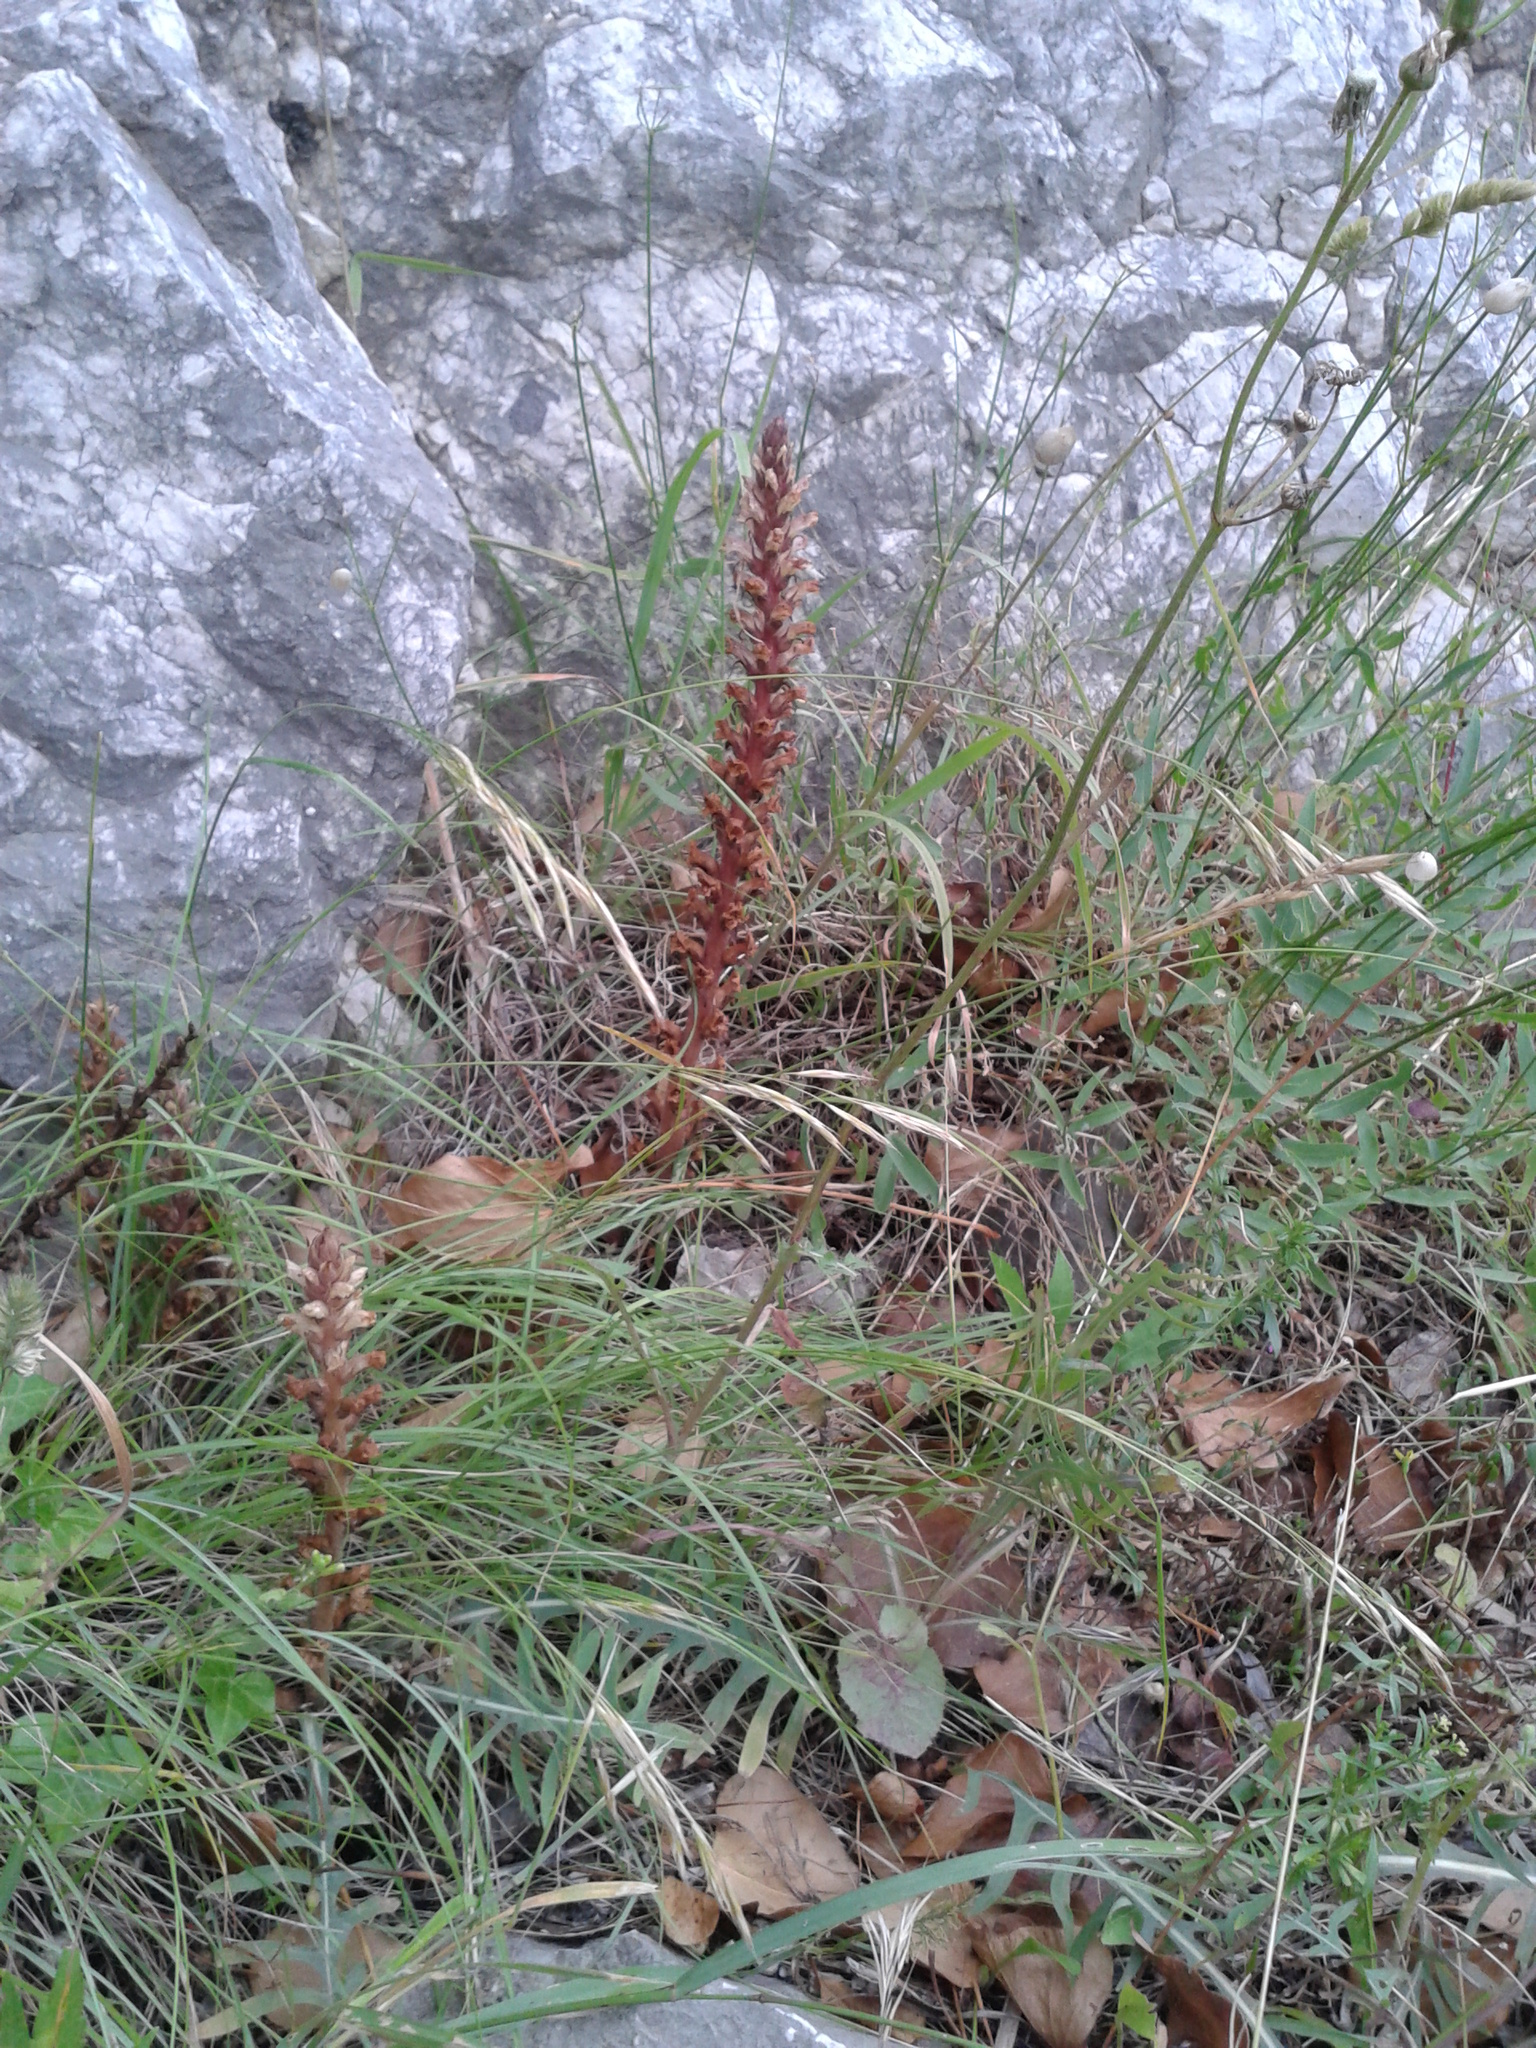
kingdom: Plantae
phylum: Tracheophyta
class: Magnoliopsida
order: Lamiales
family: Orobanchaceae
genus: Orobanche
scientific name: Orobanche hederae
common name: Ivy broomrape
